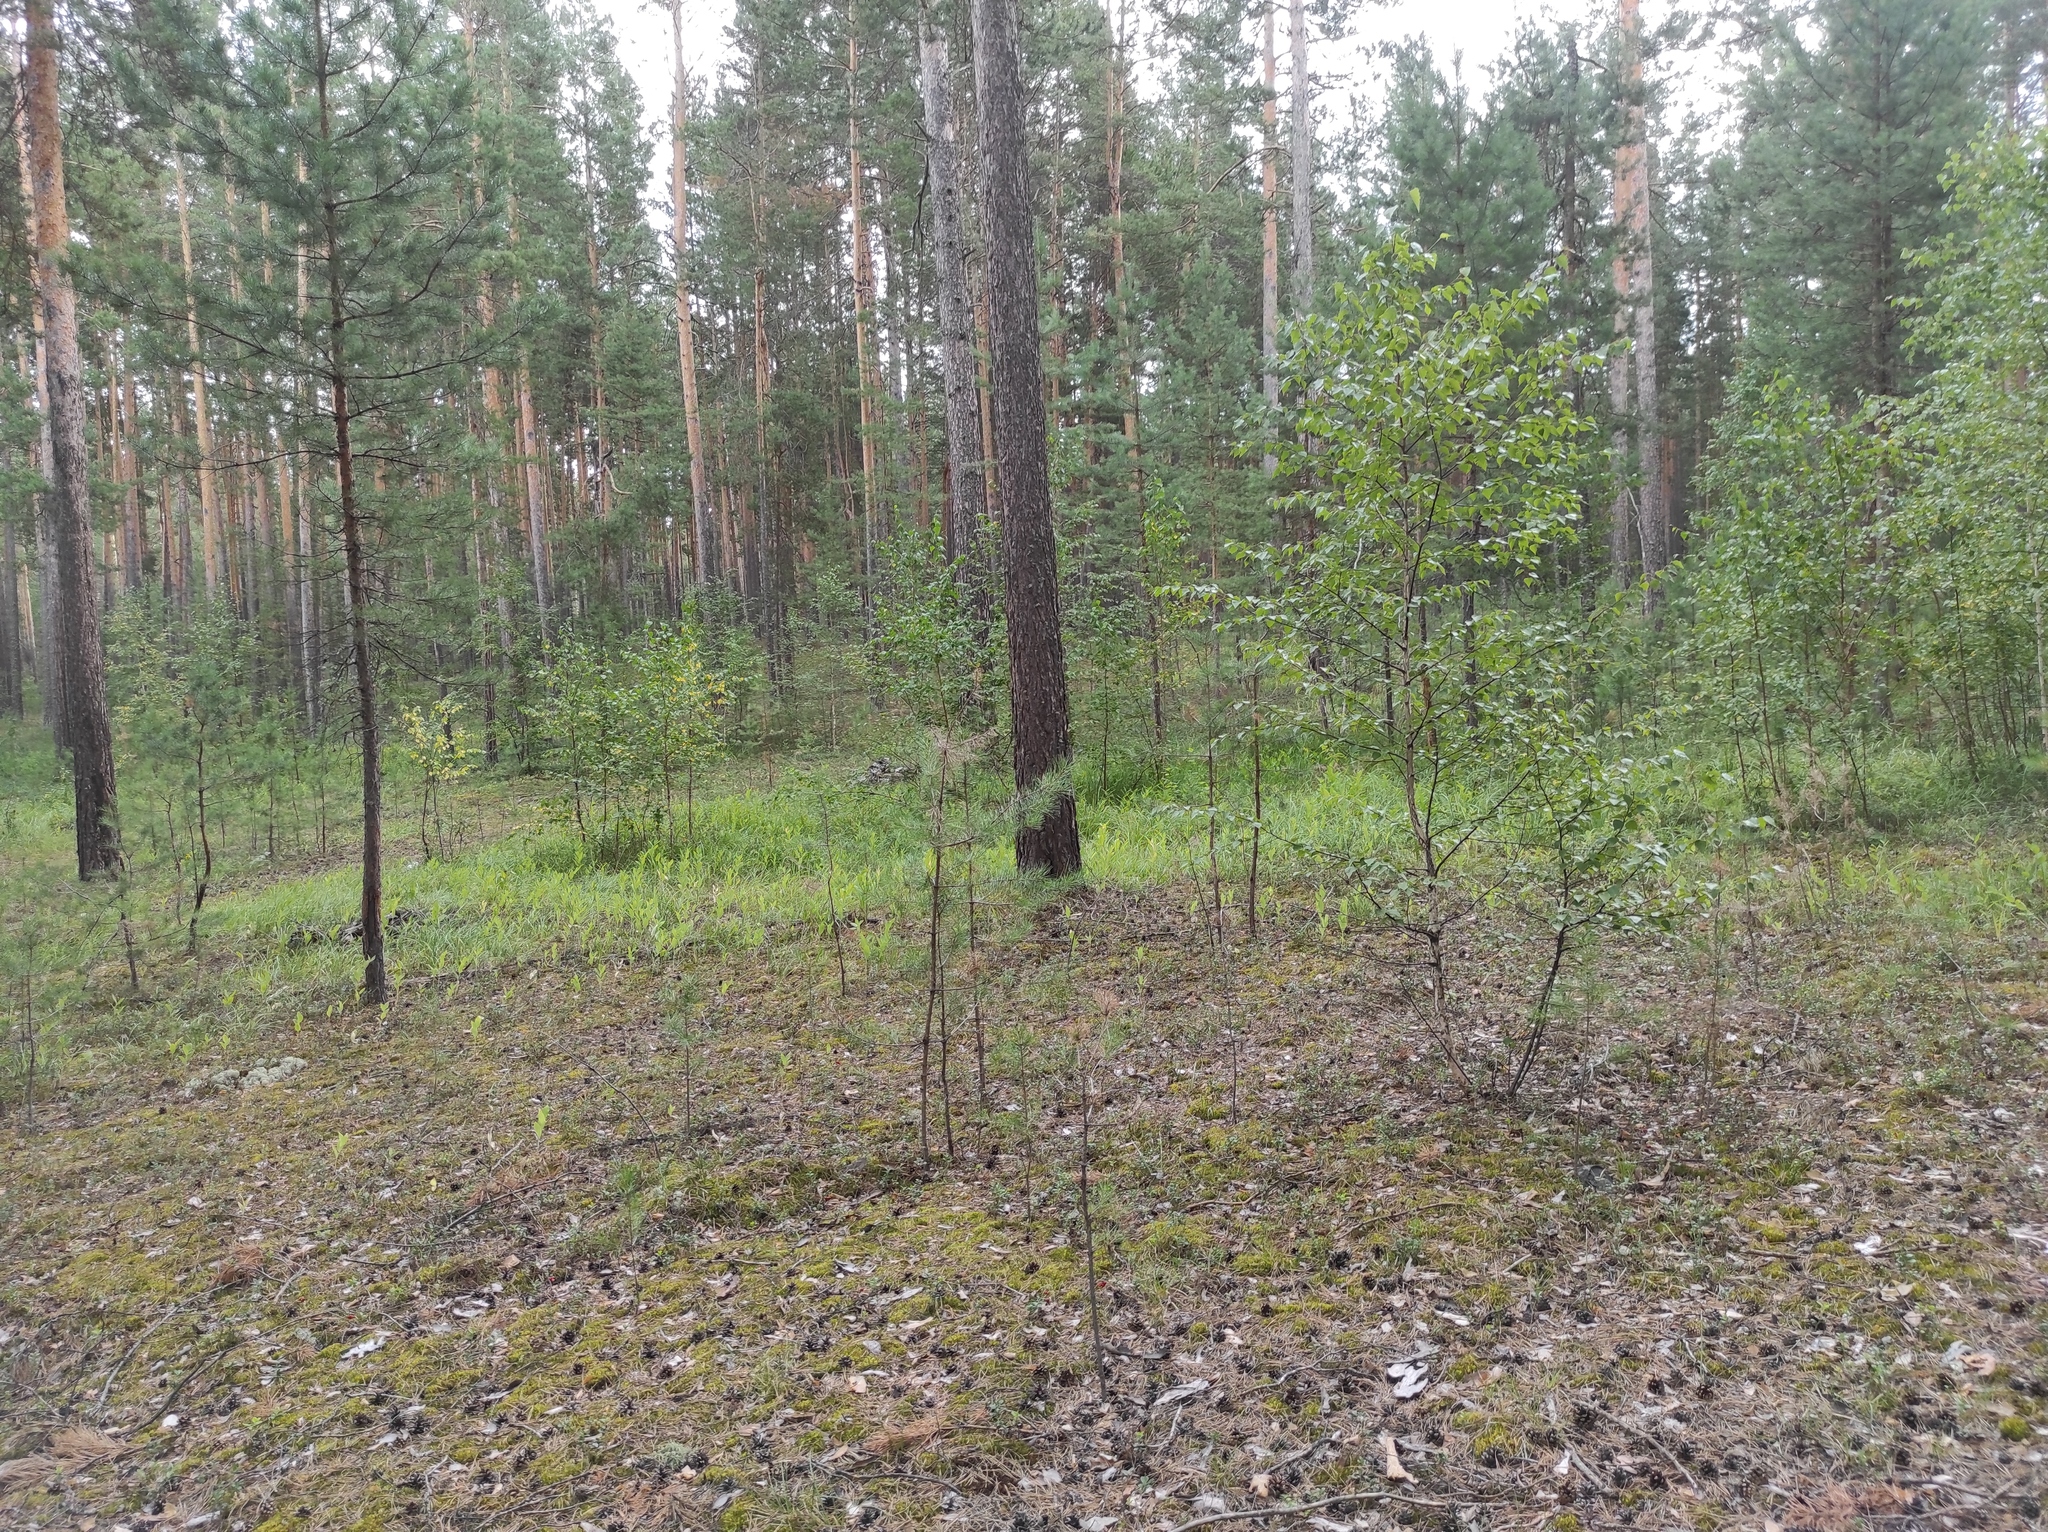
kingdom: Plantae
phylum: Tracheophyta
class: Pinopsida
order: Pinales
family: Pinaceae
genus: Pinus
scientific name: Pinus sylvestris
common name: Scots pine
